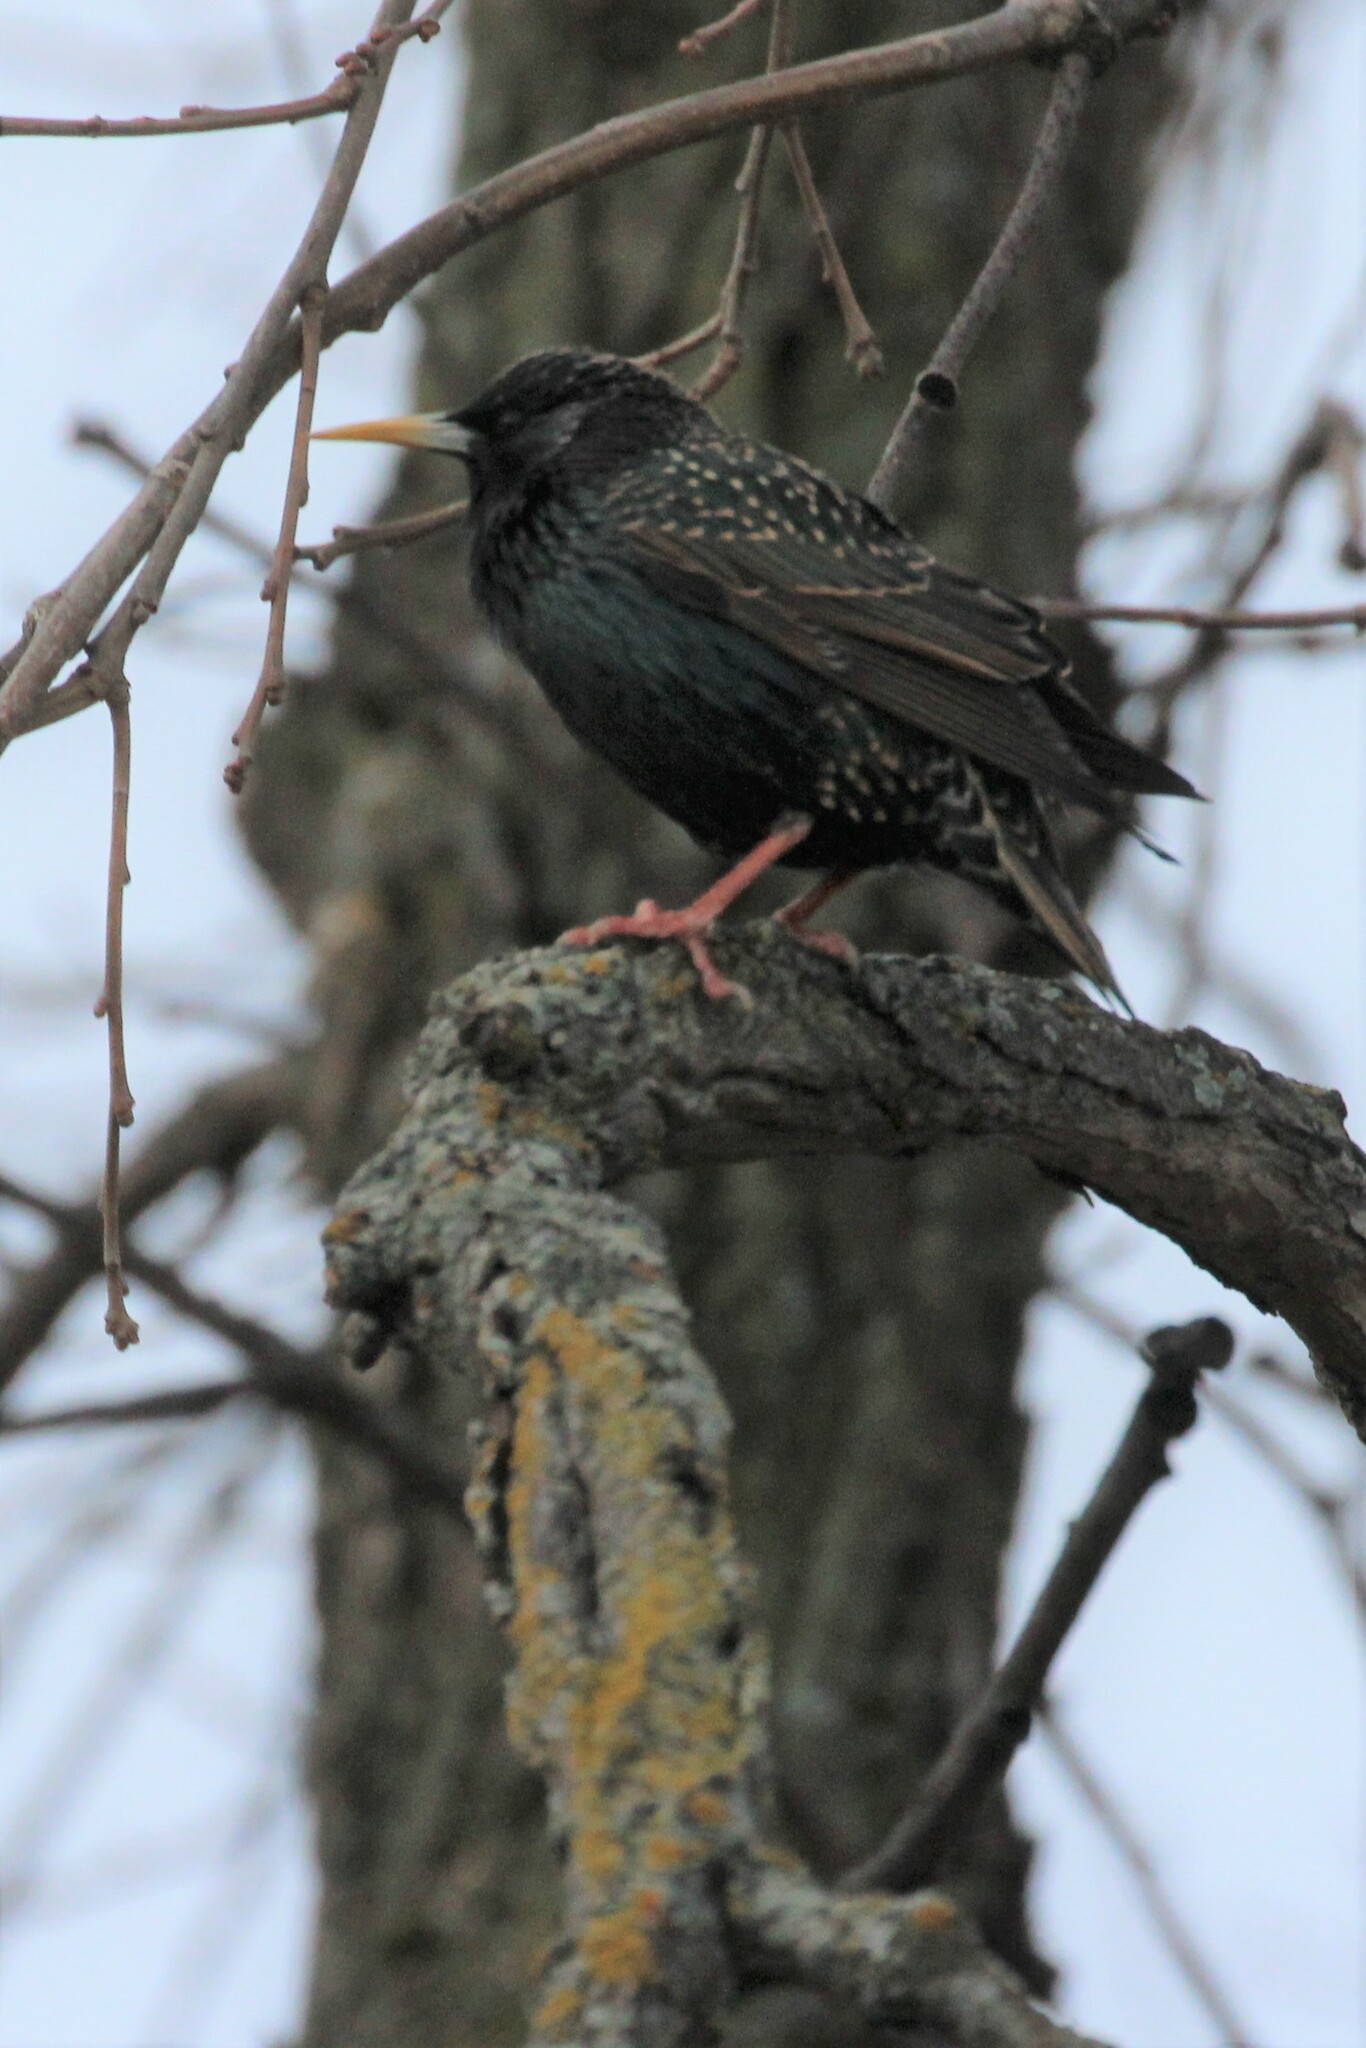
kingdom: Animalia
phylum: Chordata
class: Aves
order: Passeriformes
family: Sturnidae
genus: Sturnus
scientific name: Sturnus vulgaris
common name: Common starling
